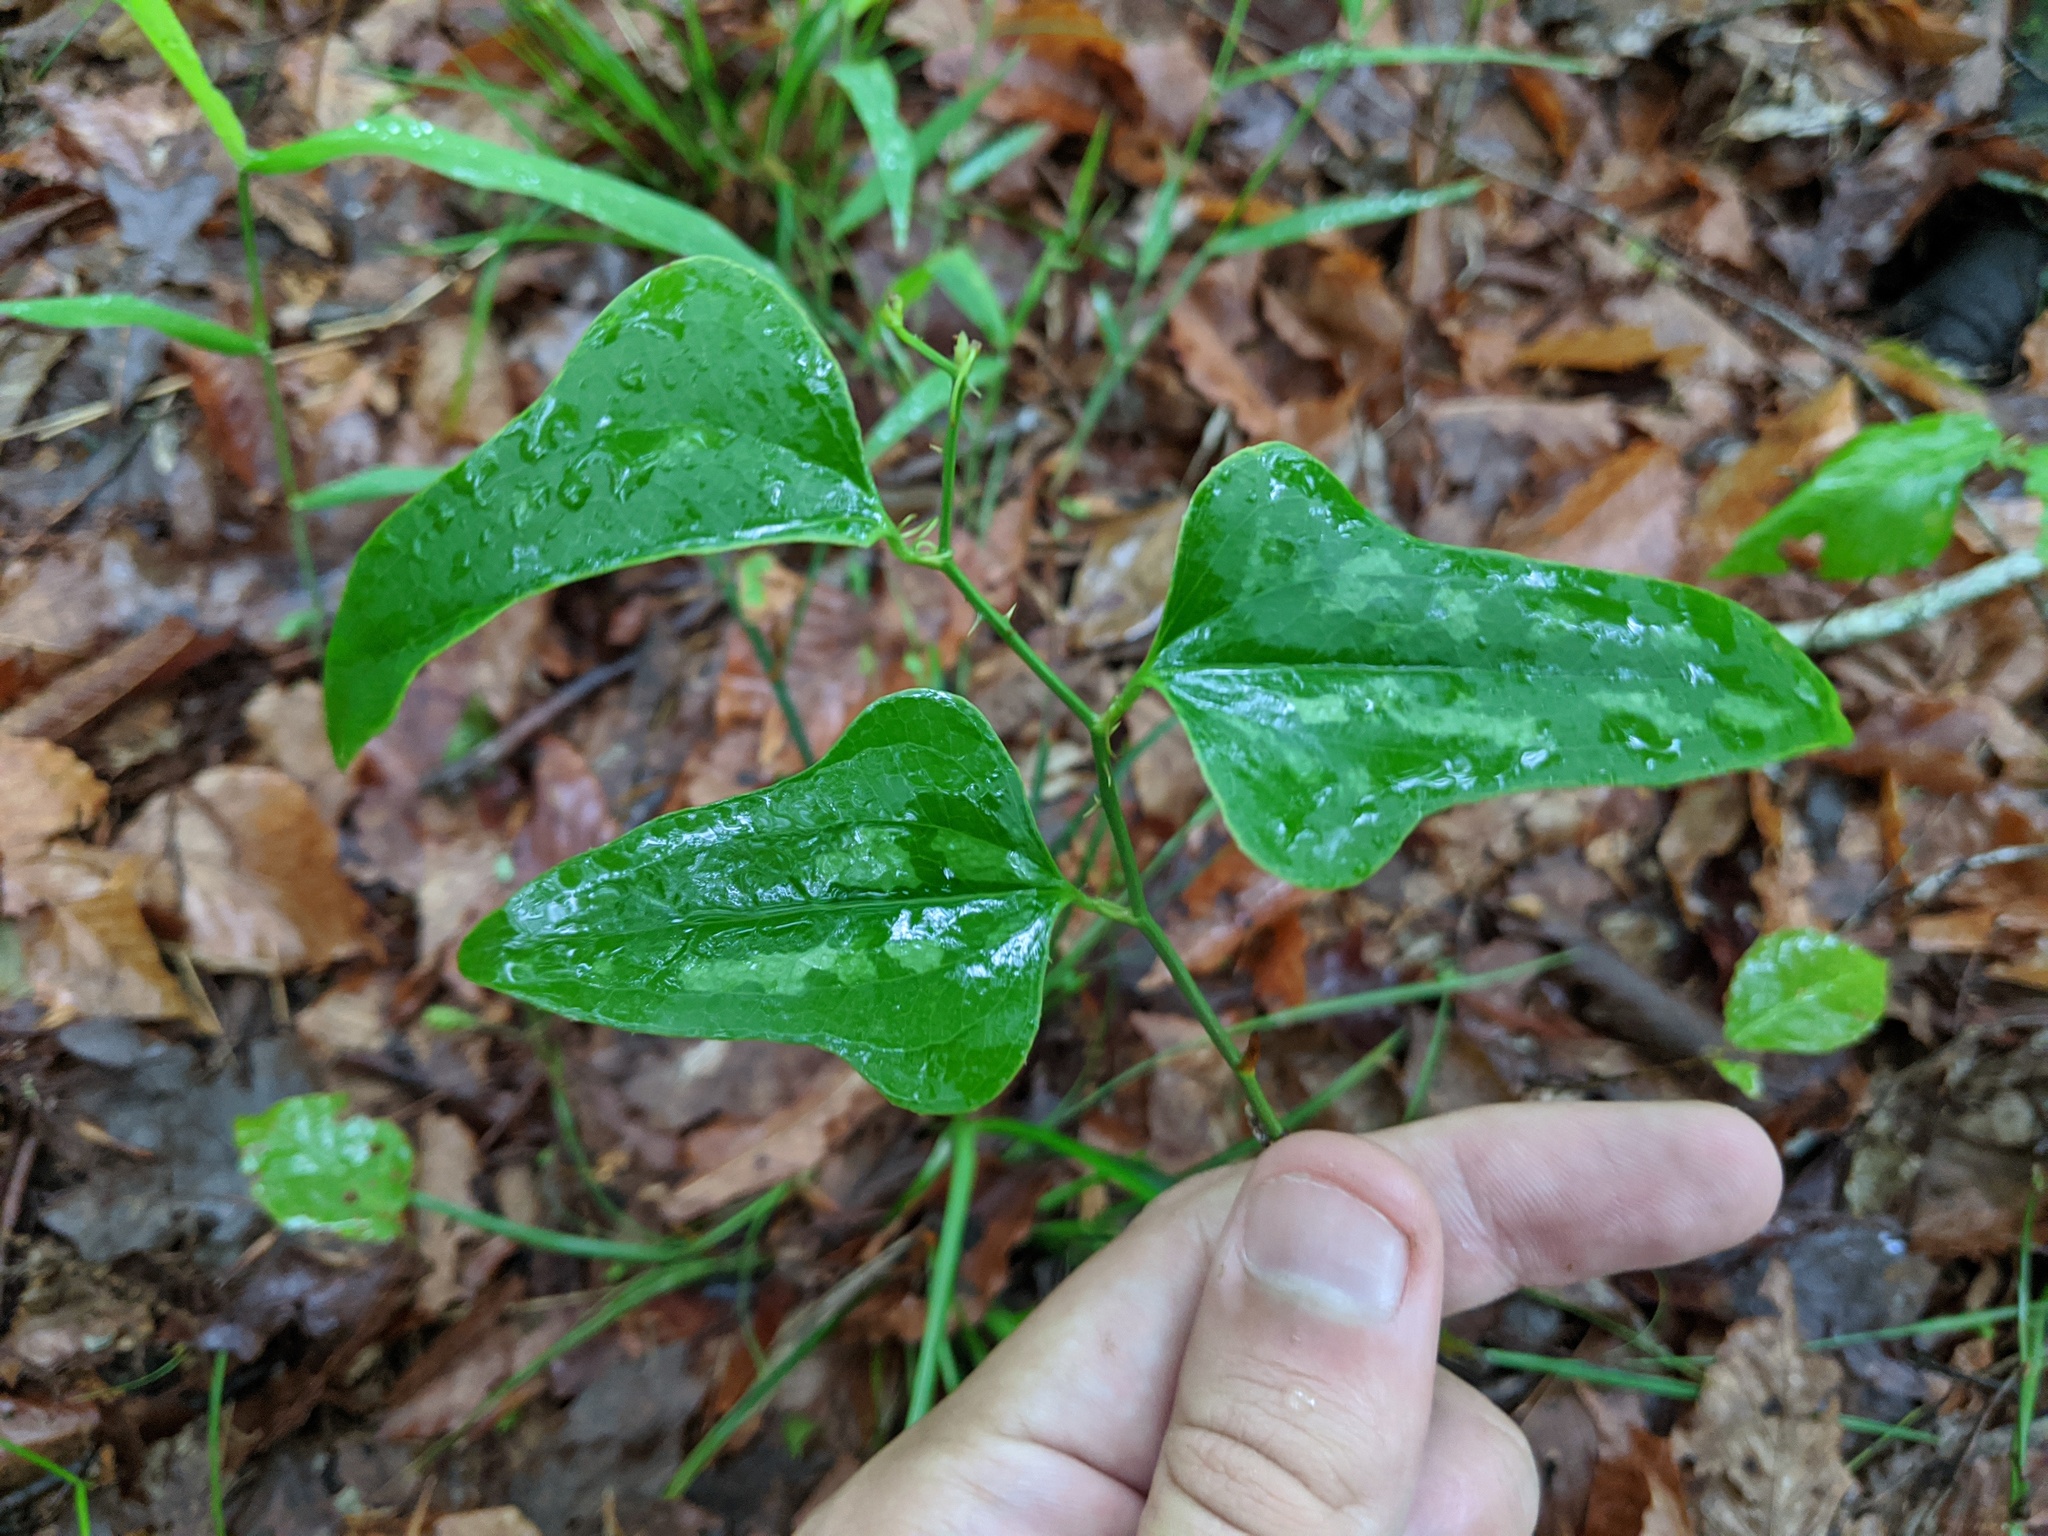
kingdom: Plantae
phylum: Tracheophyta
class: Liliopsida
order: Liliales
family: Smilacaceae
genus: Smilax
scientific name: Smilax bona-nox
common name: Catbrier
